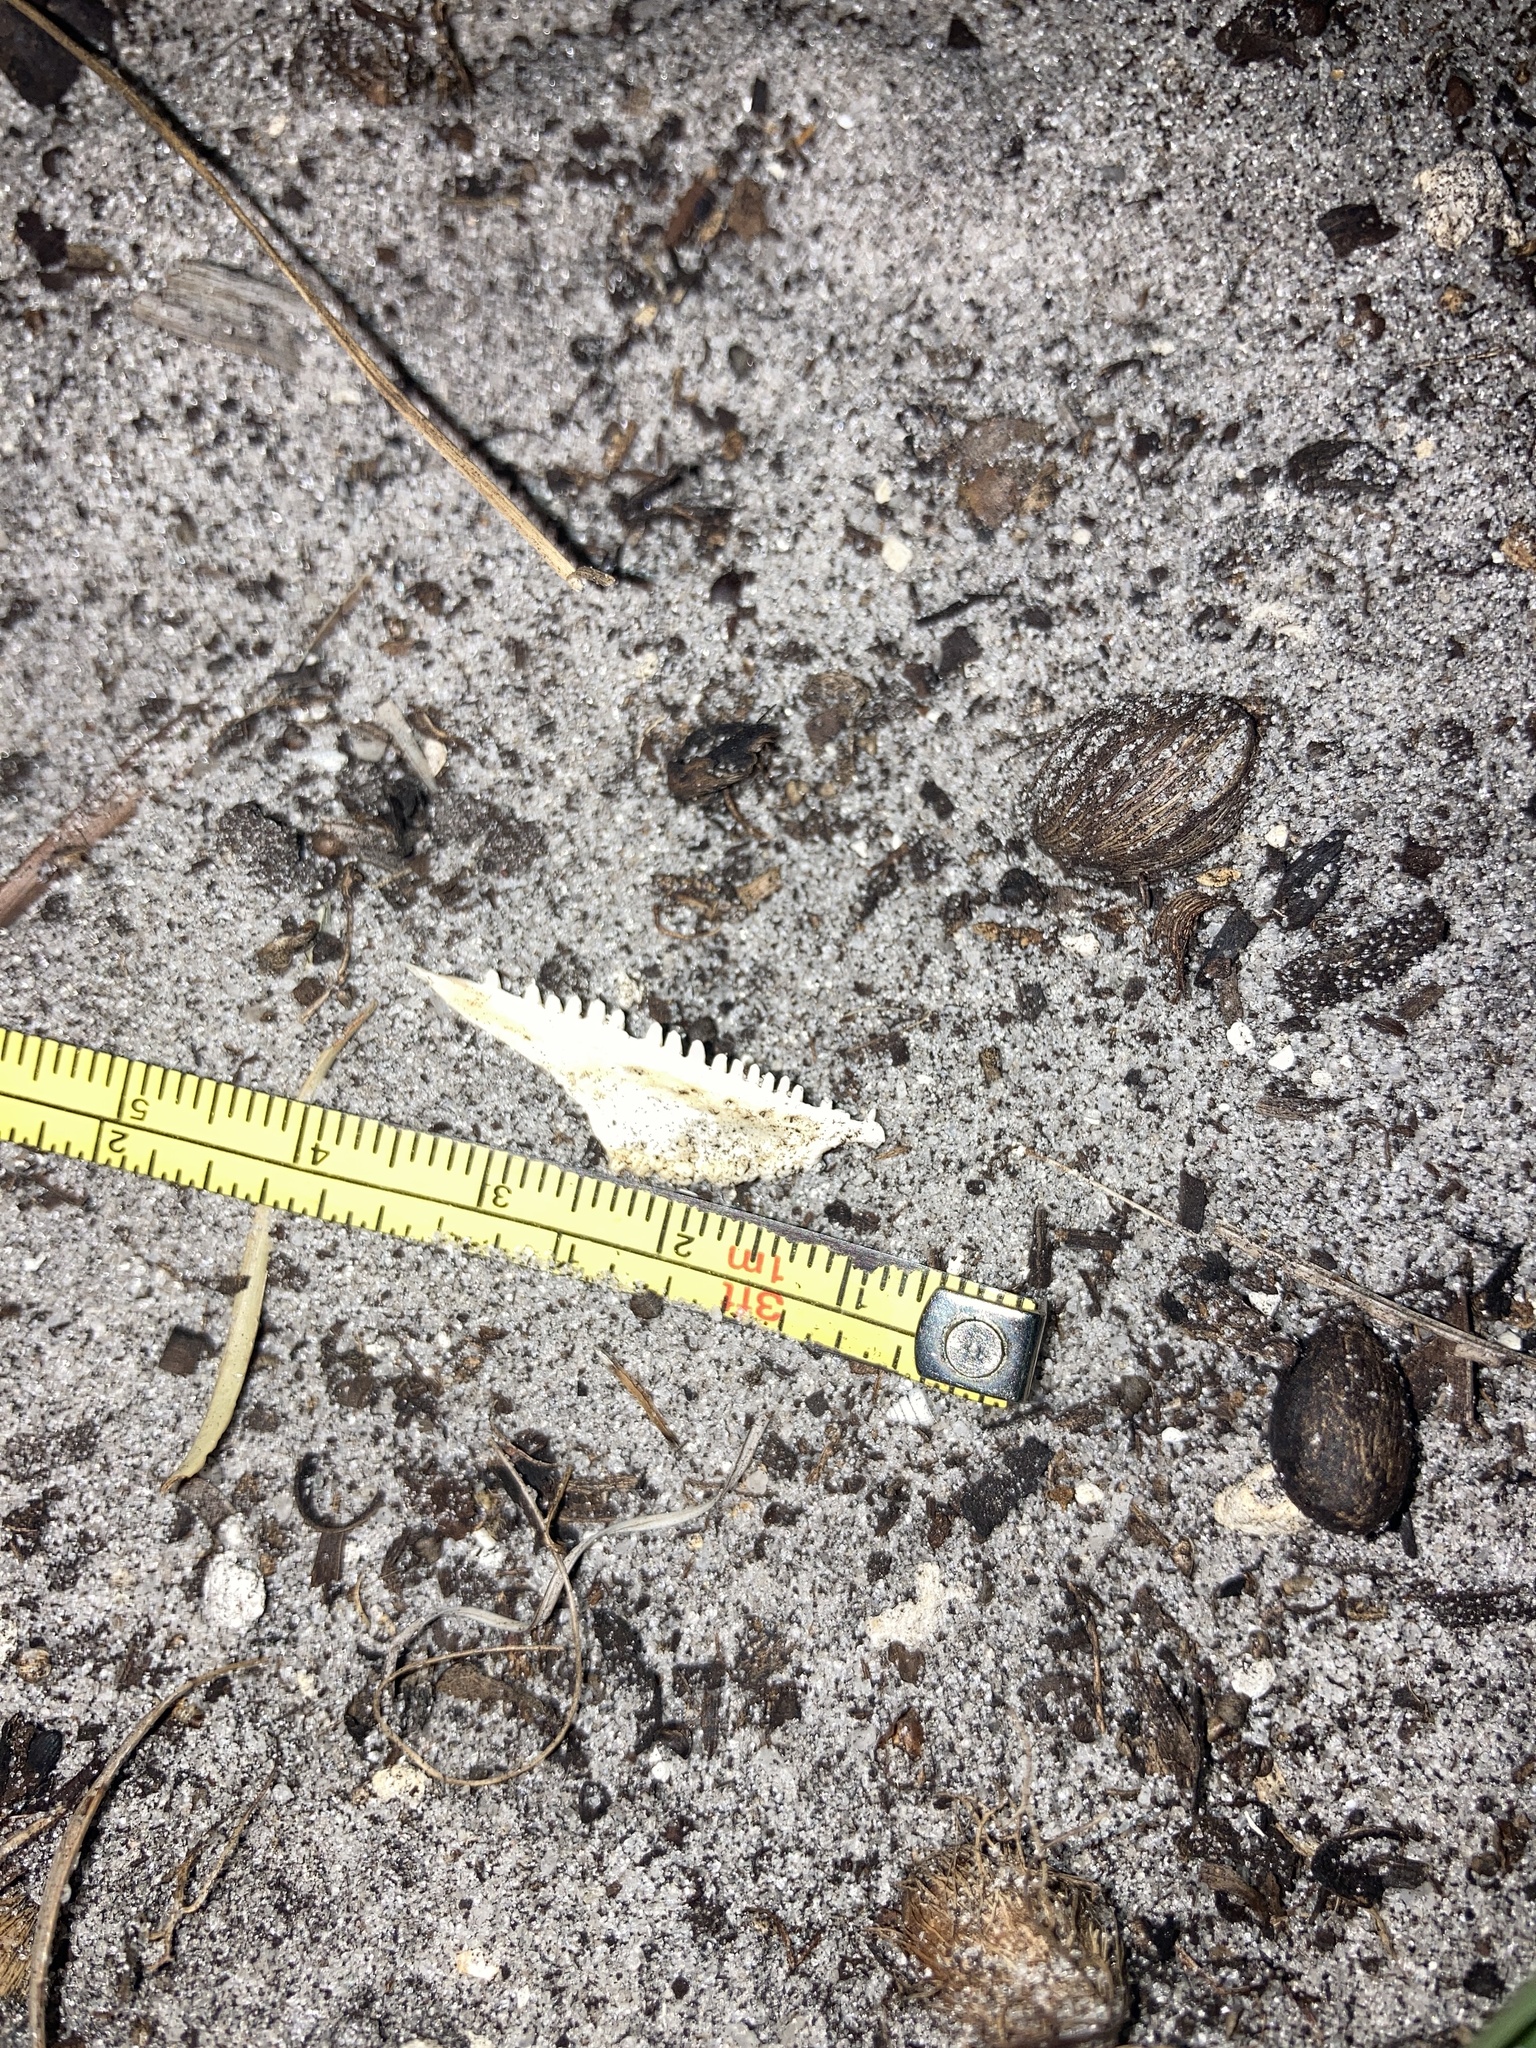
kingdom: Animalia
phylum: Chordata
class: Squamata
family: Iguanidae
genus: Iguana
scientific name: Iguana iguana
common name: Green iguana
